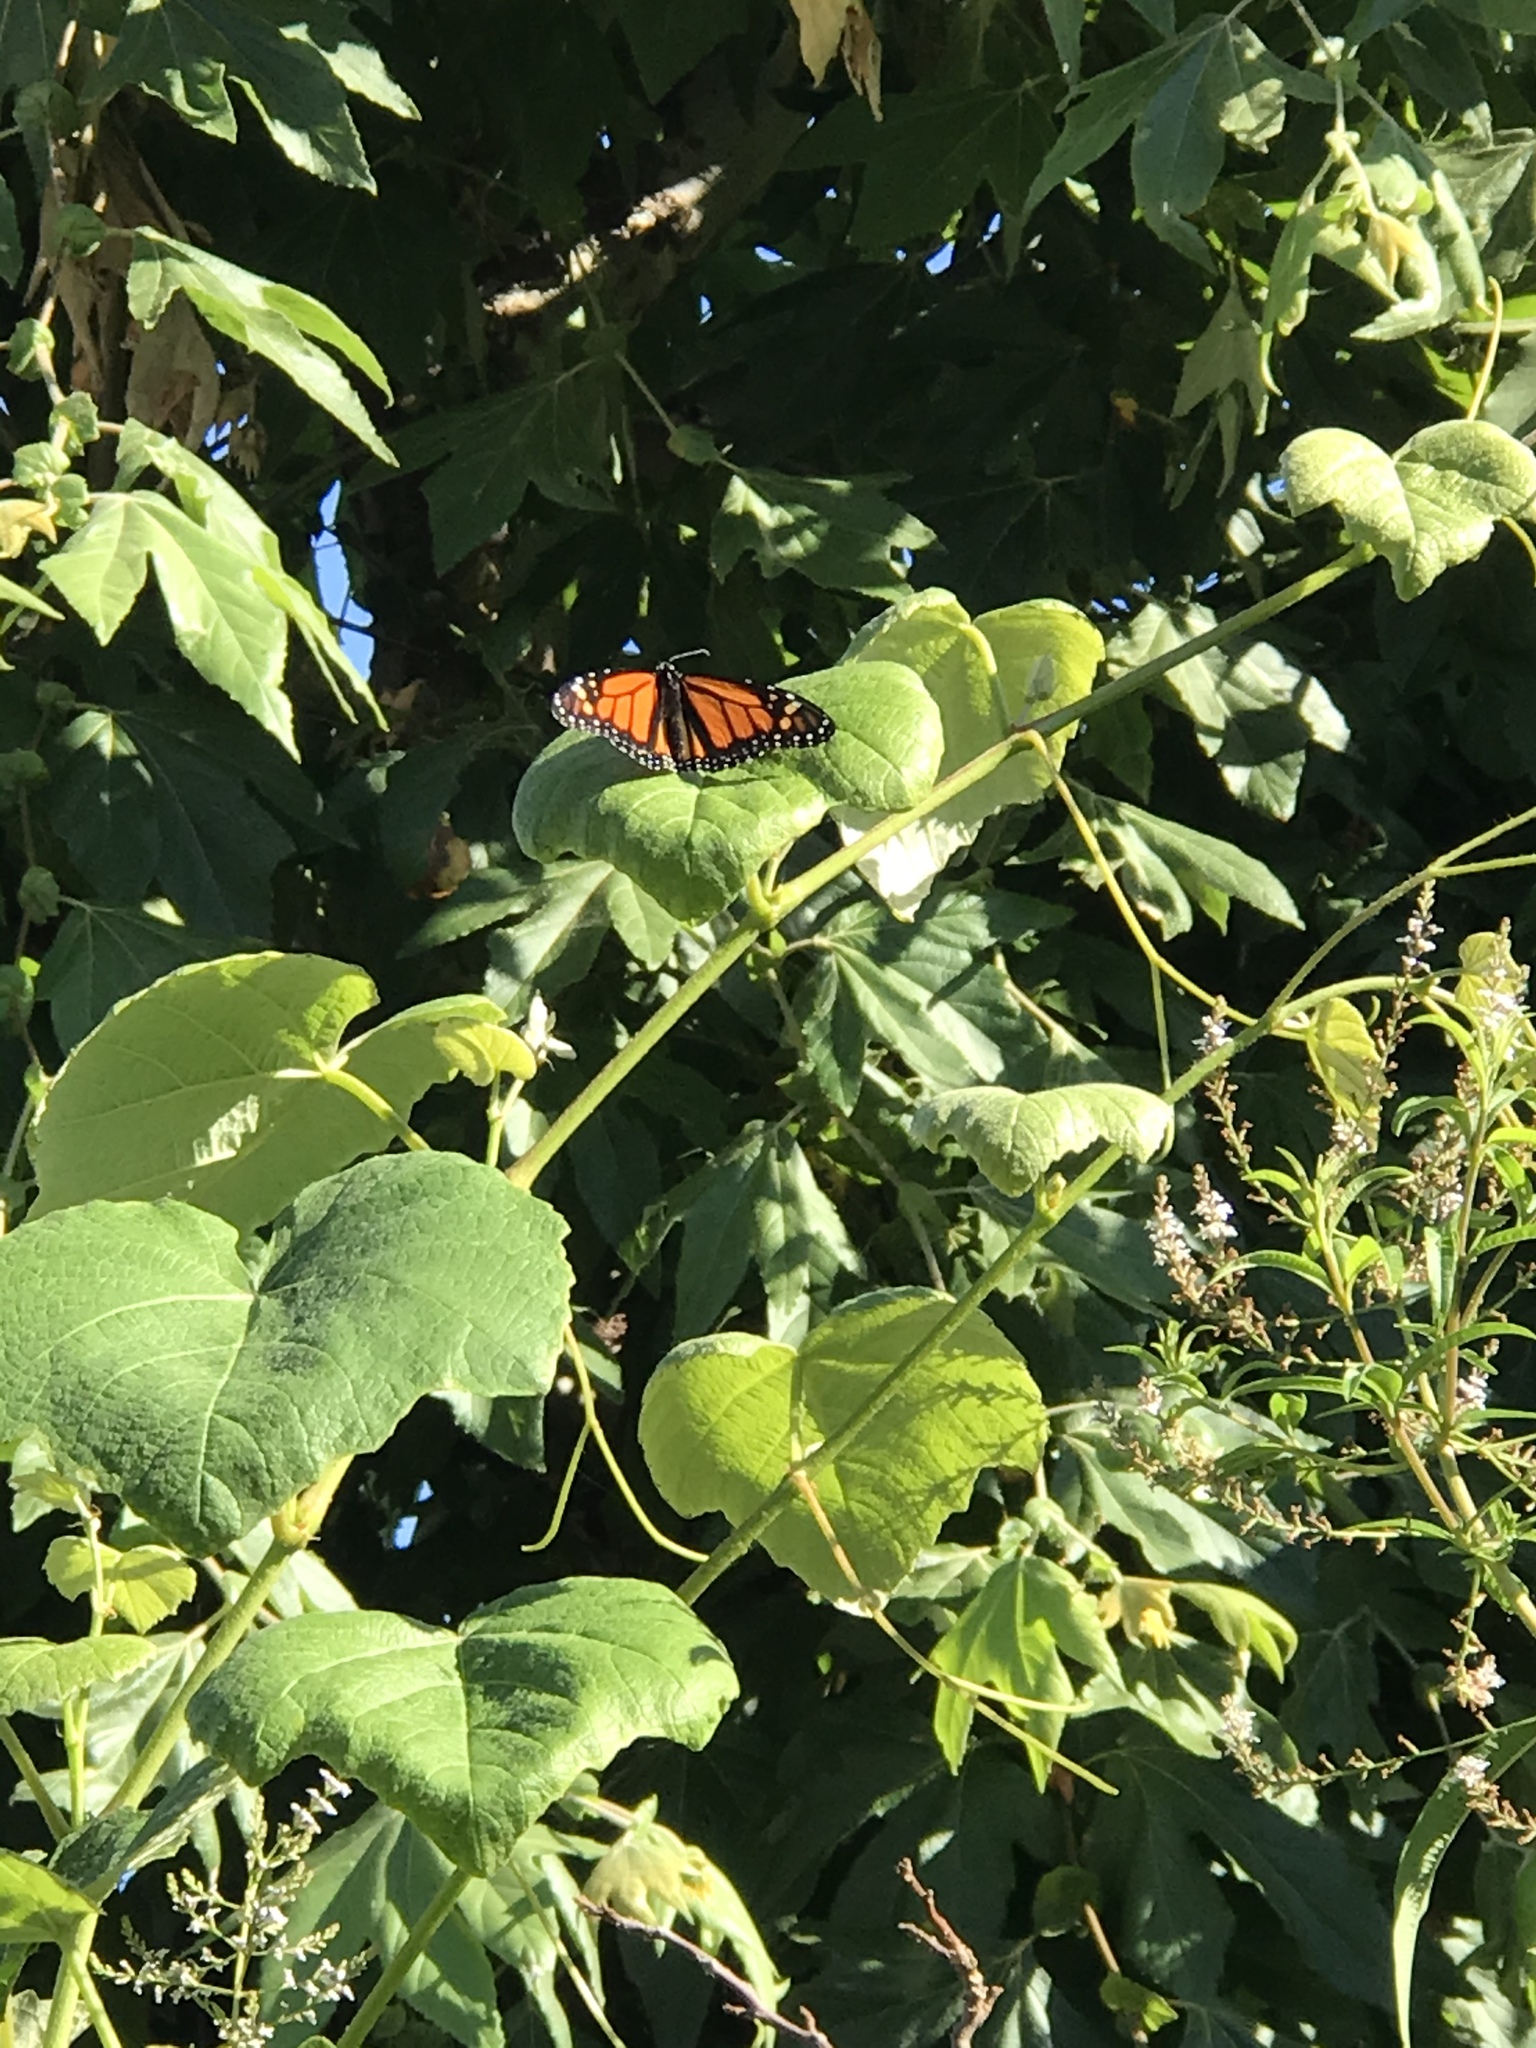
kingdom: Animalia
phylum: Arthropoda
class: Insecta
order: Lepidoptera
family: Nymphalidae
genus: Danaus
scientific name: Danaus plexippus
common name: Monarch
